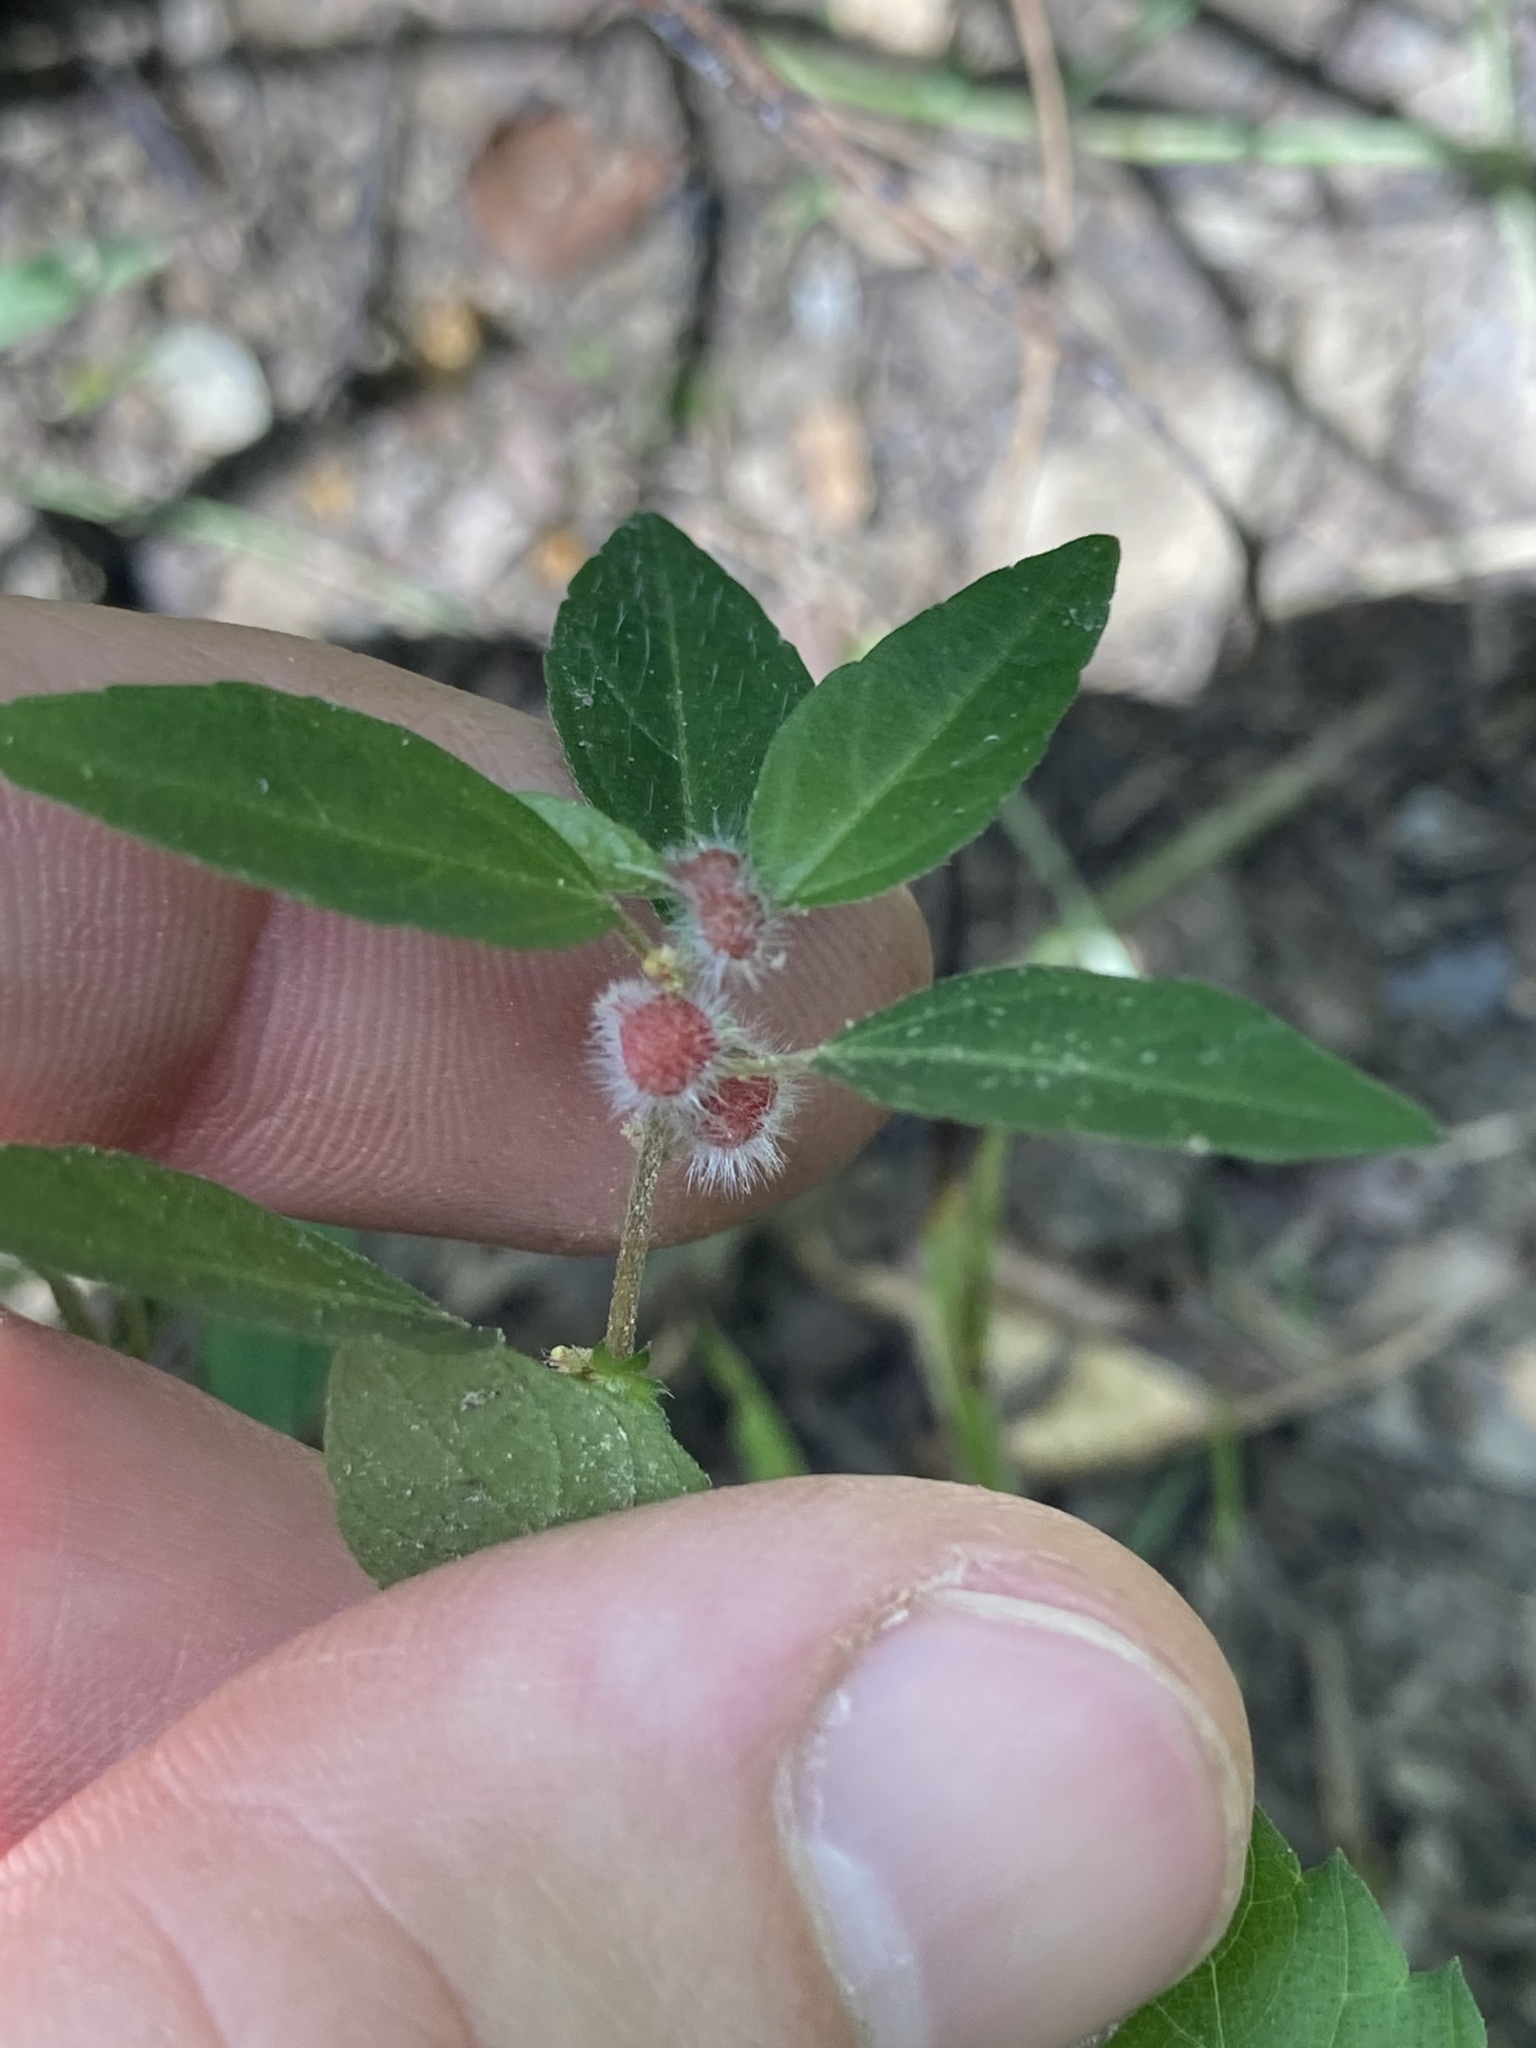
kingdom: Animalia
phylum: Arthropoda
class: Insecta
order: Diptera
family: Cecidomyiidae
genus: Resseliella
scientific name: Resseliella globosa
